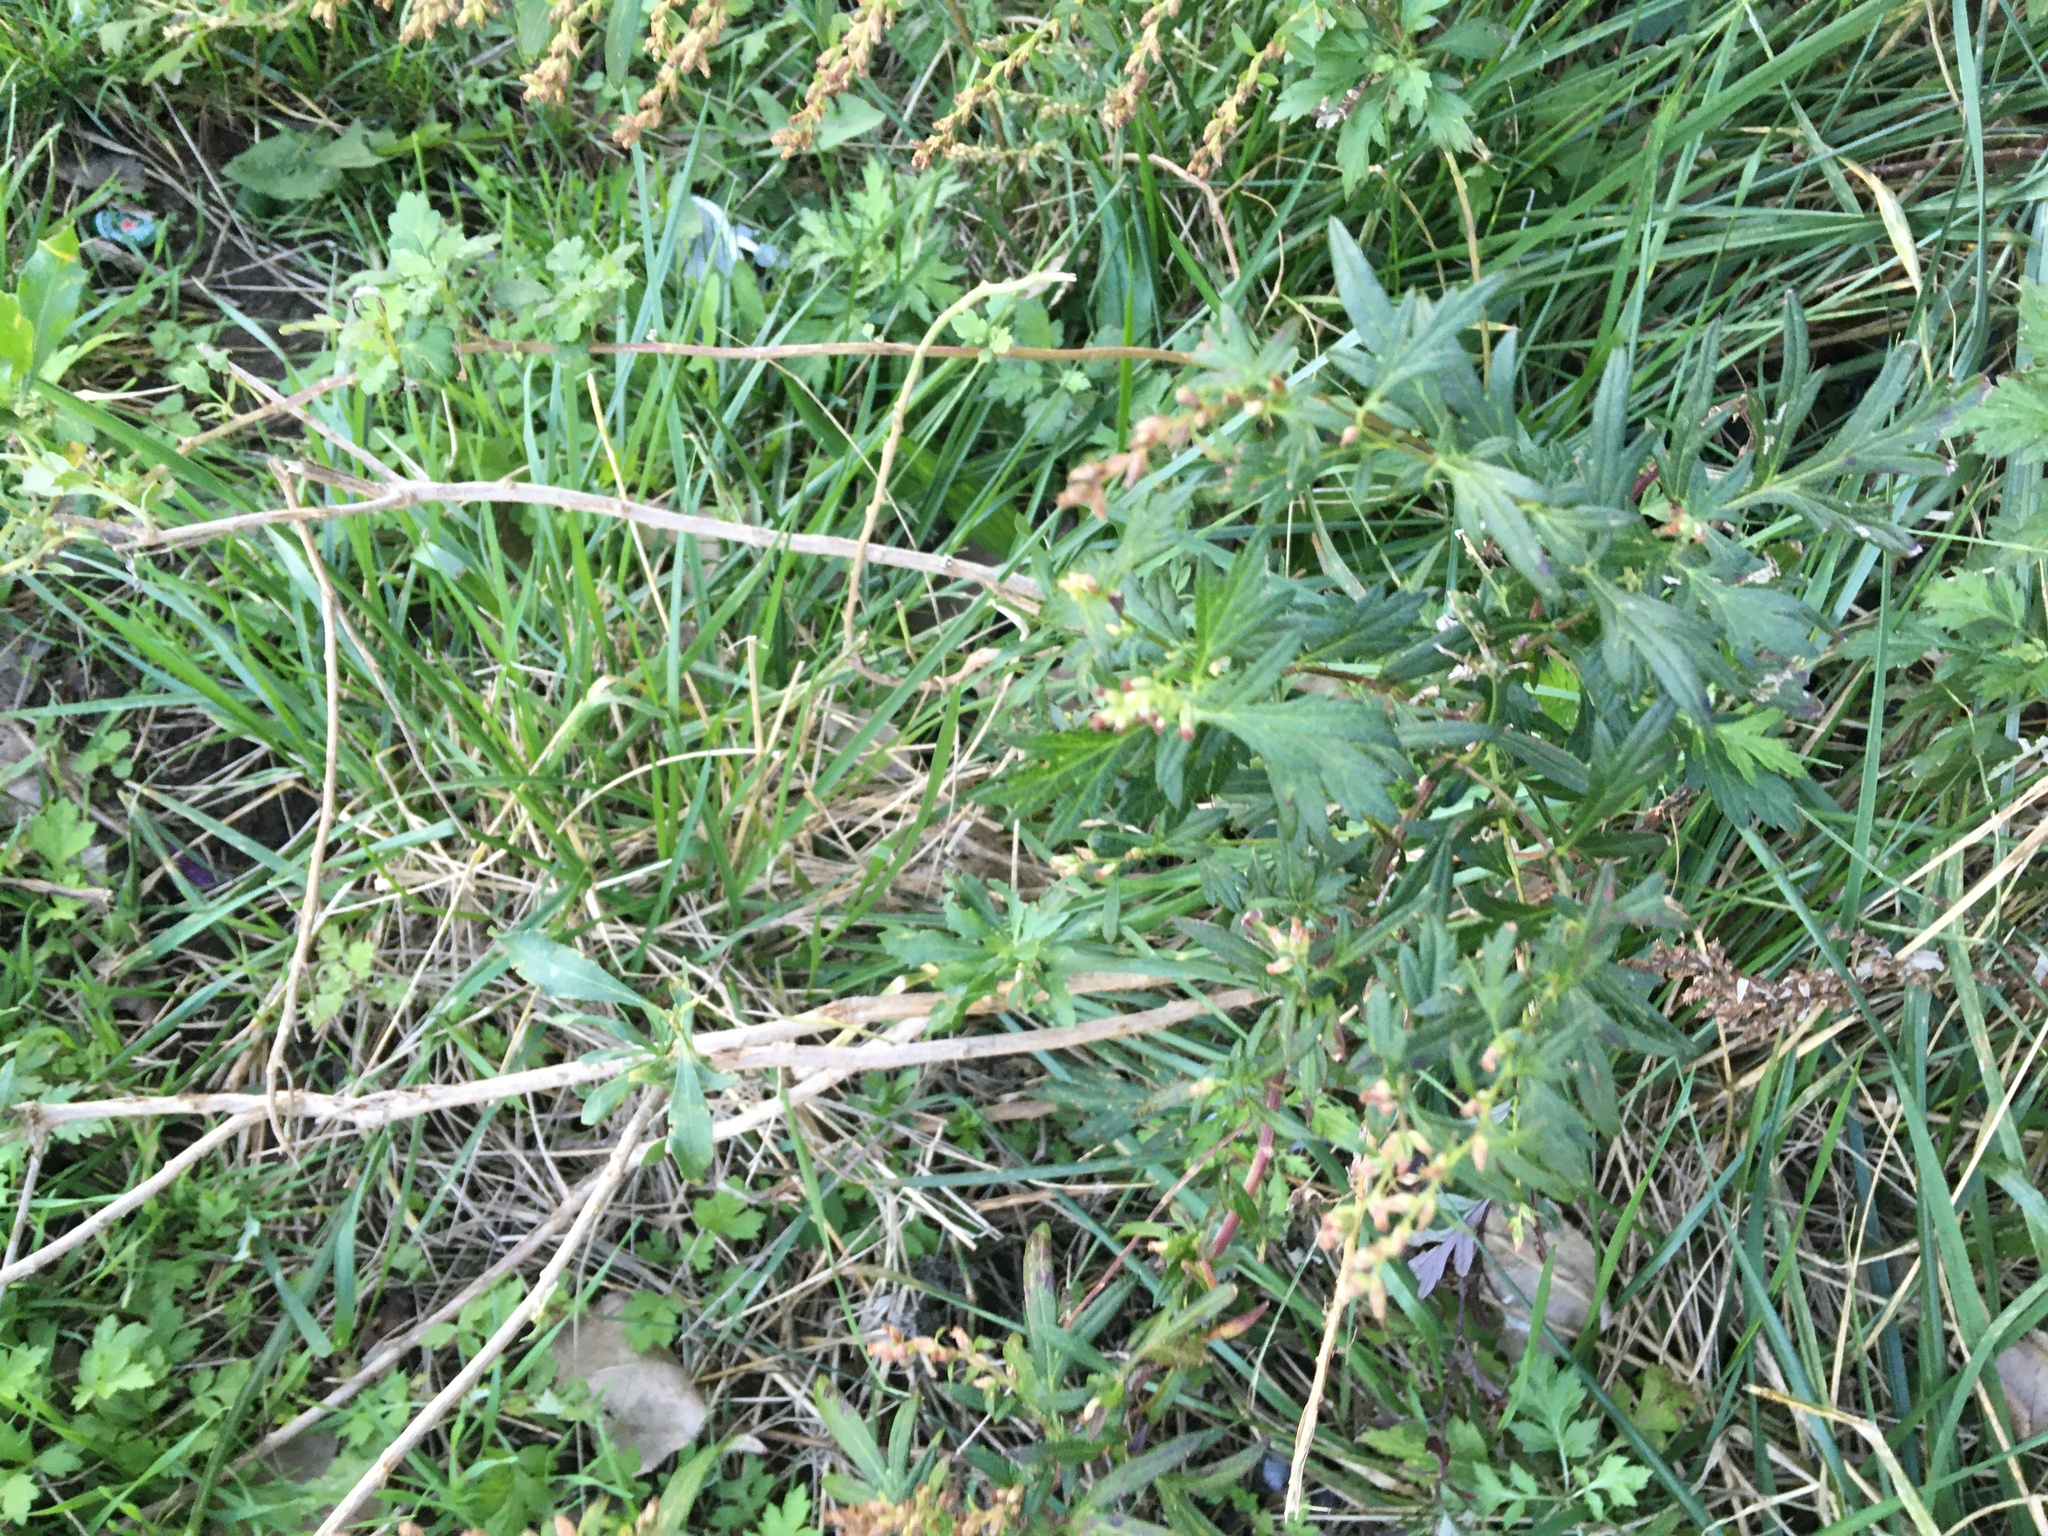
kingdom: Plantae
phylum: Tracheophyta
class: Magnoliopsida
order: Asterales
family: Asteraceae
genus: Artemisia
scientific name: Artemisia vulgaris
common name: Mugwort
